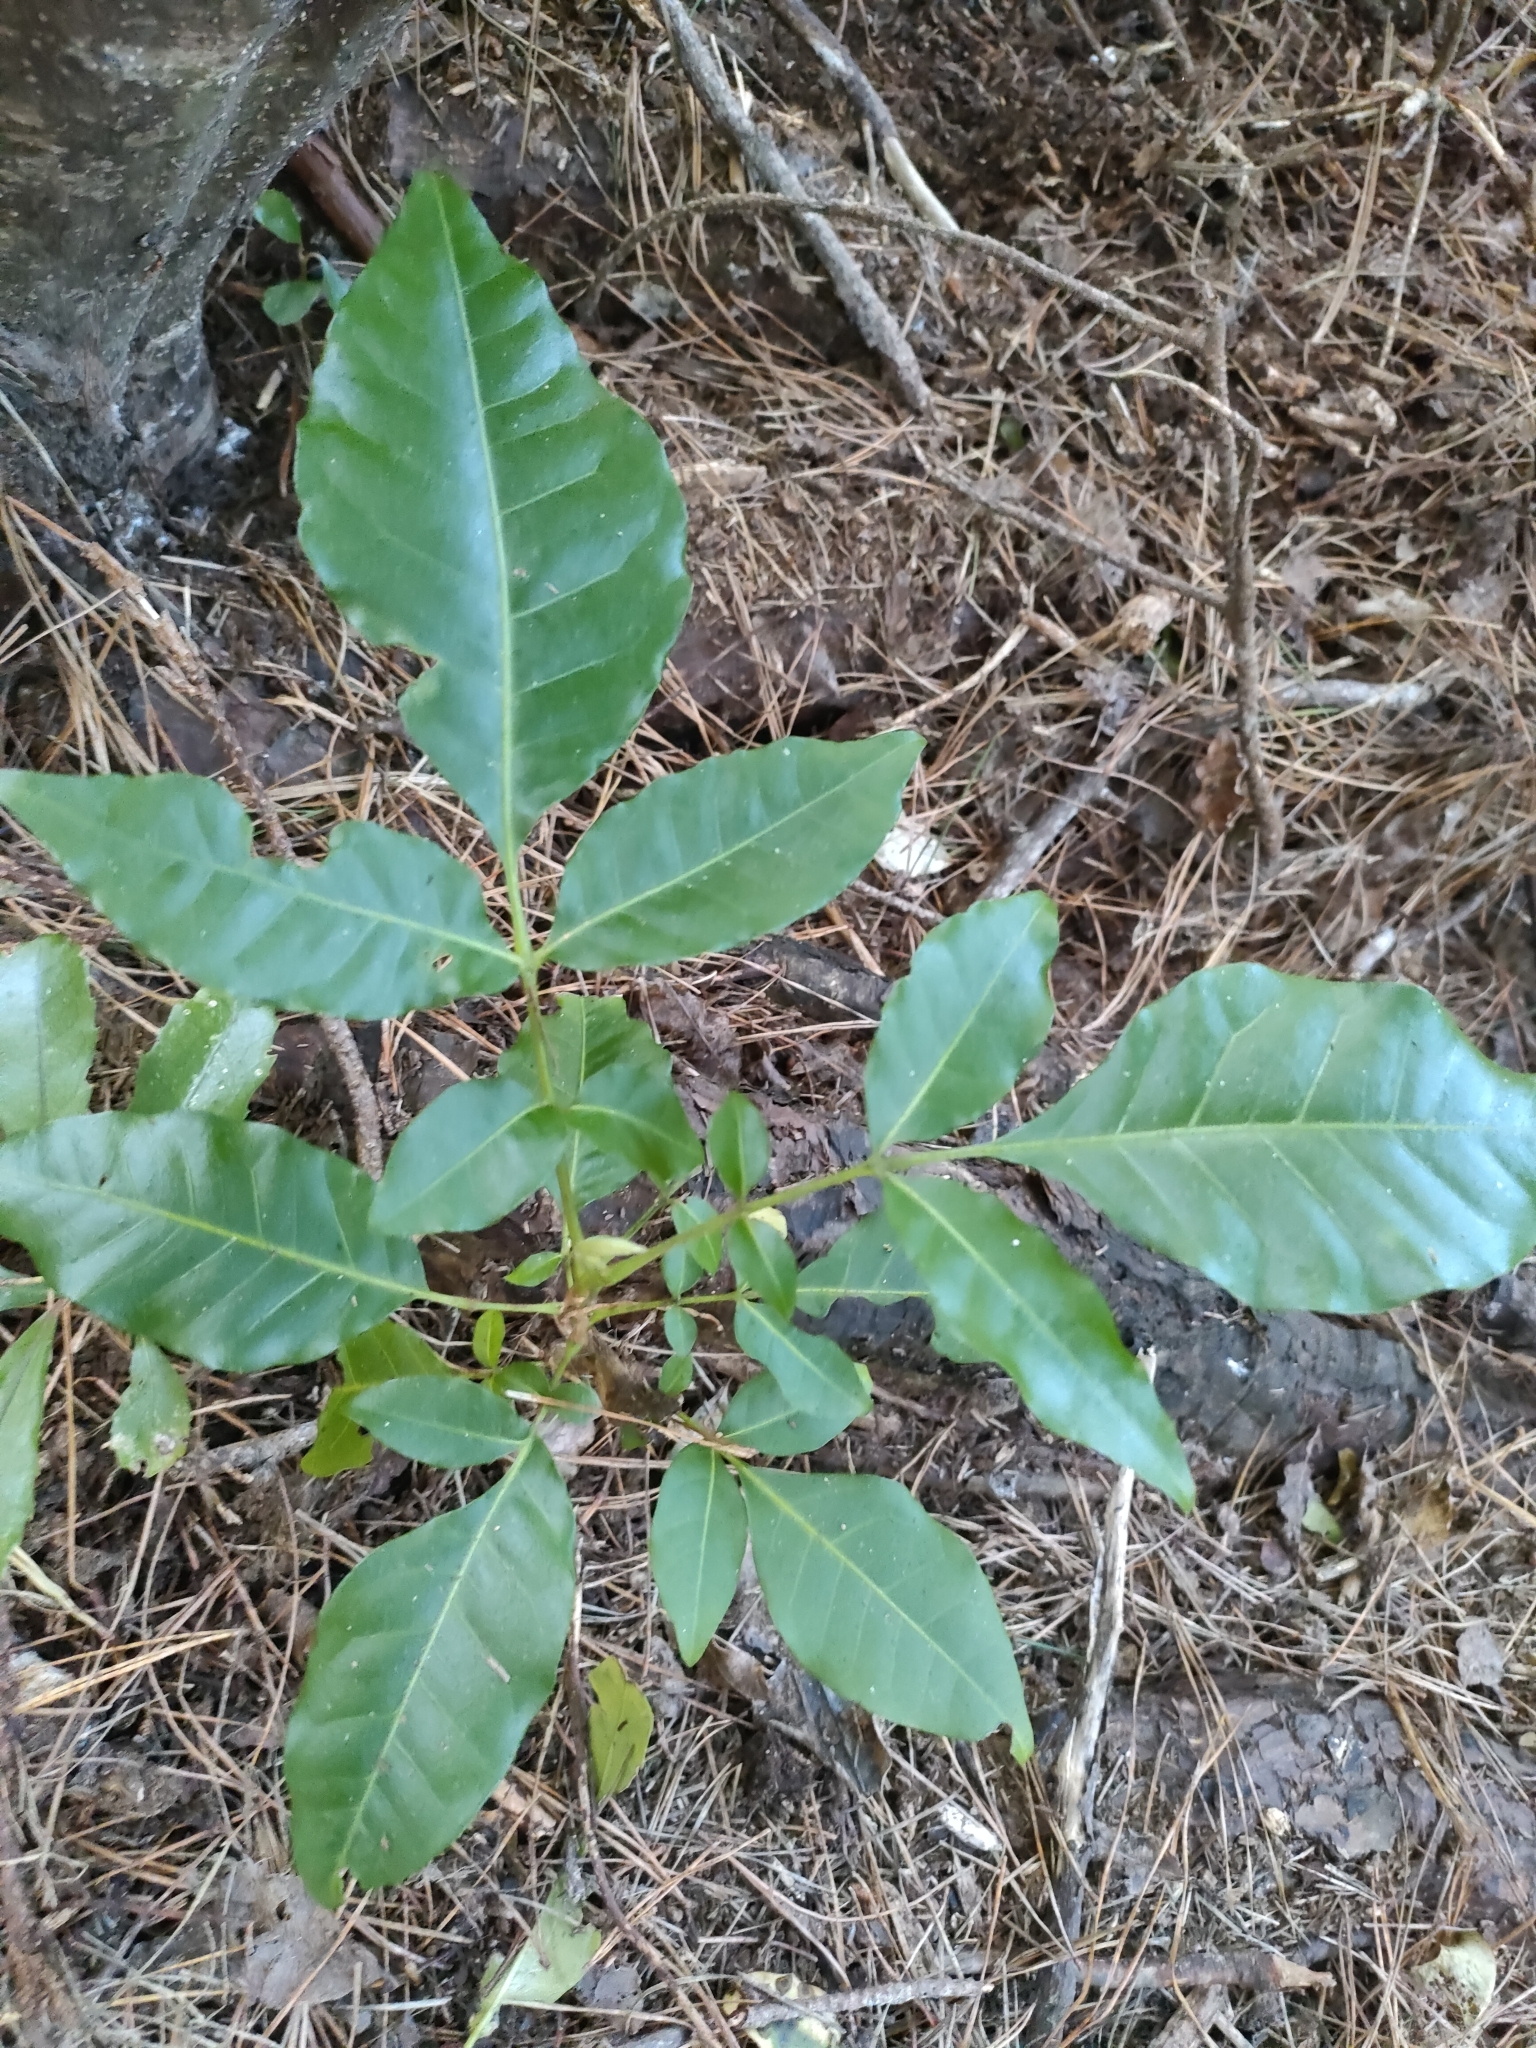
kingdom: Plantae
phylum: Tracheophyta
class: Magnoliopsida
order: Sapindales
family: Meliaceae
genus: Didymocheton
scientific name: Didymocheton spectabilis
